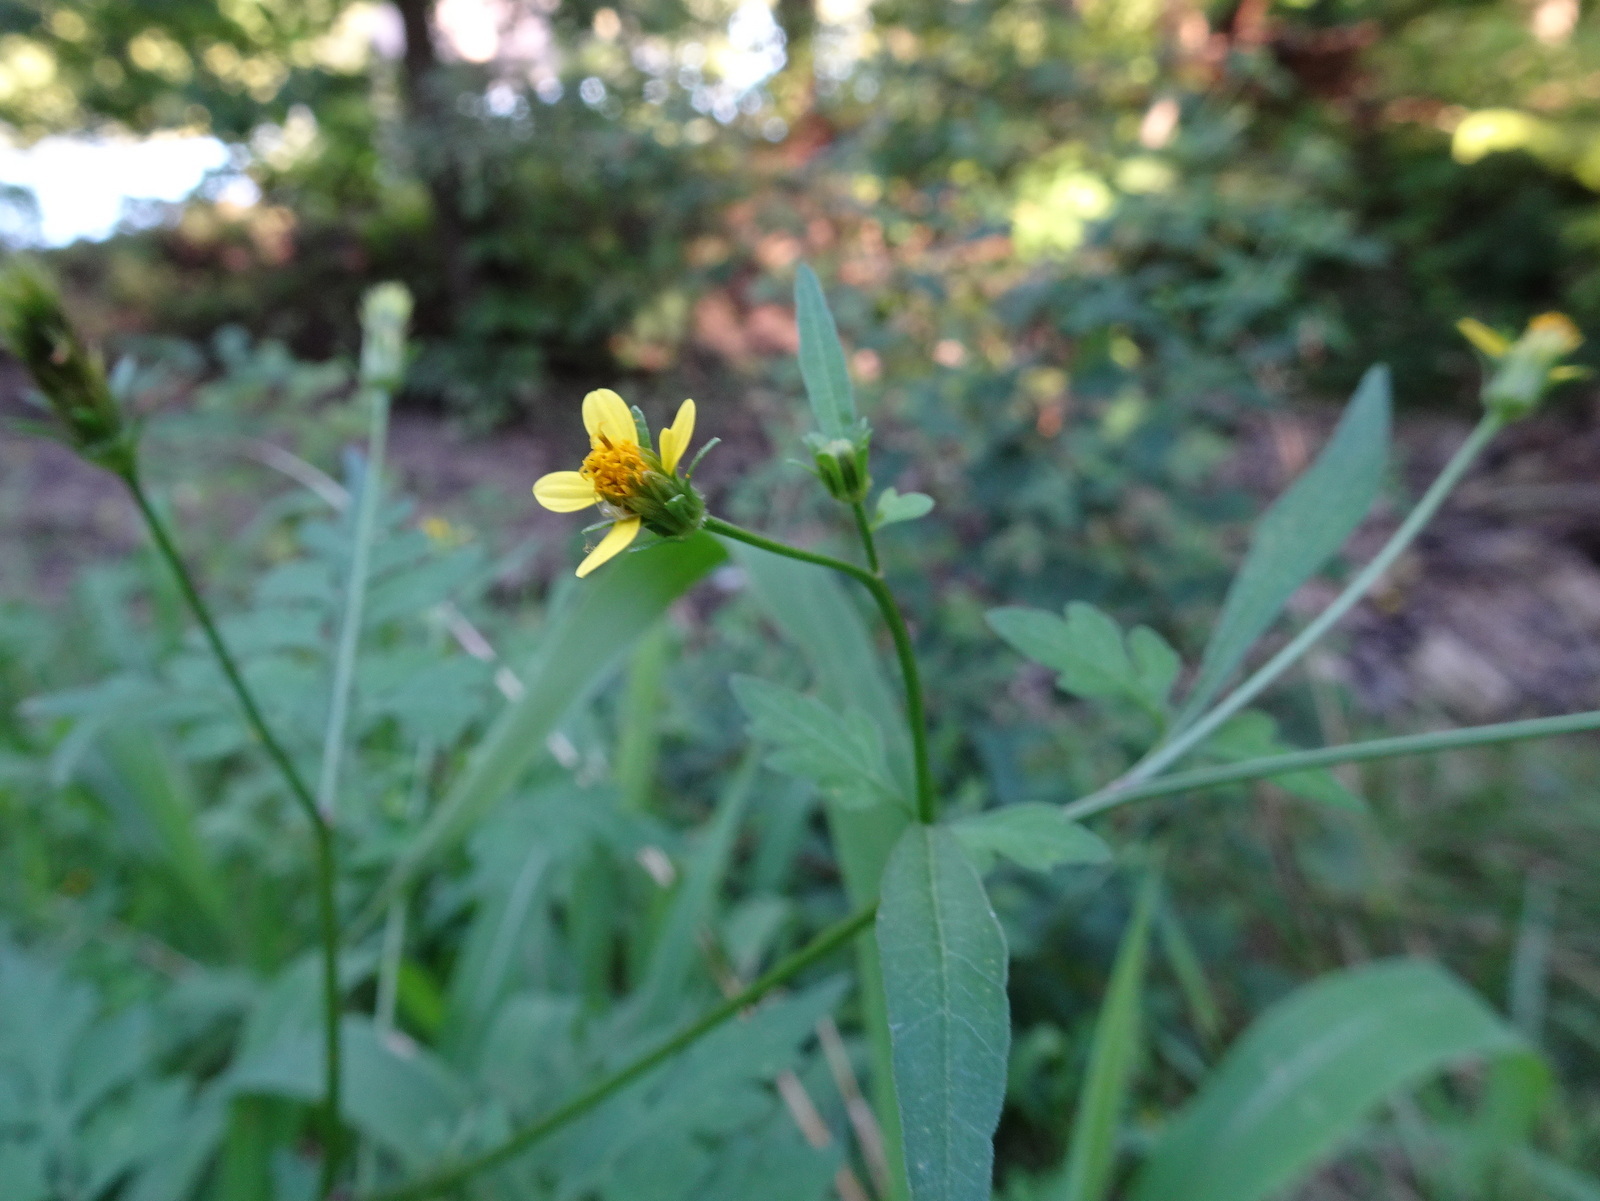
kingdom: Plantae
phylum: Tracheophyta
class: Magnoliopsida
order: Asterales
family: Asteraceae
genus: Bidens
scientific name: Bidens bipinnata
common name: Spanish-needles
